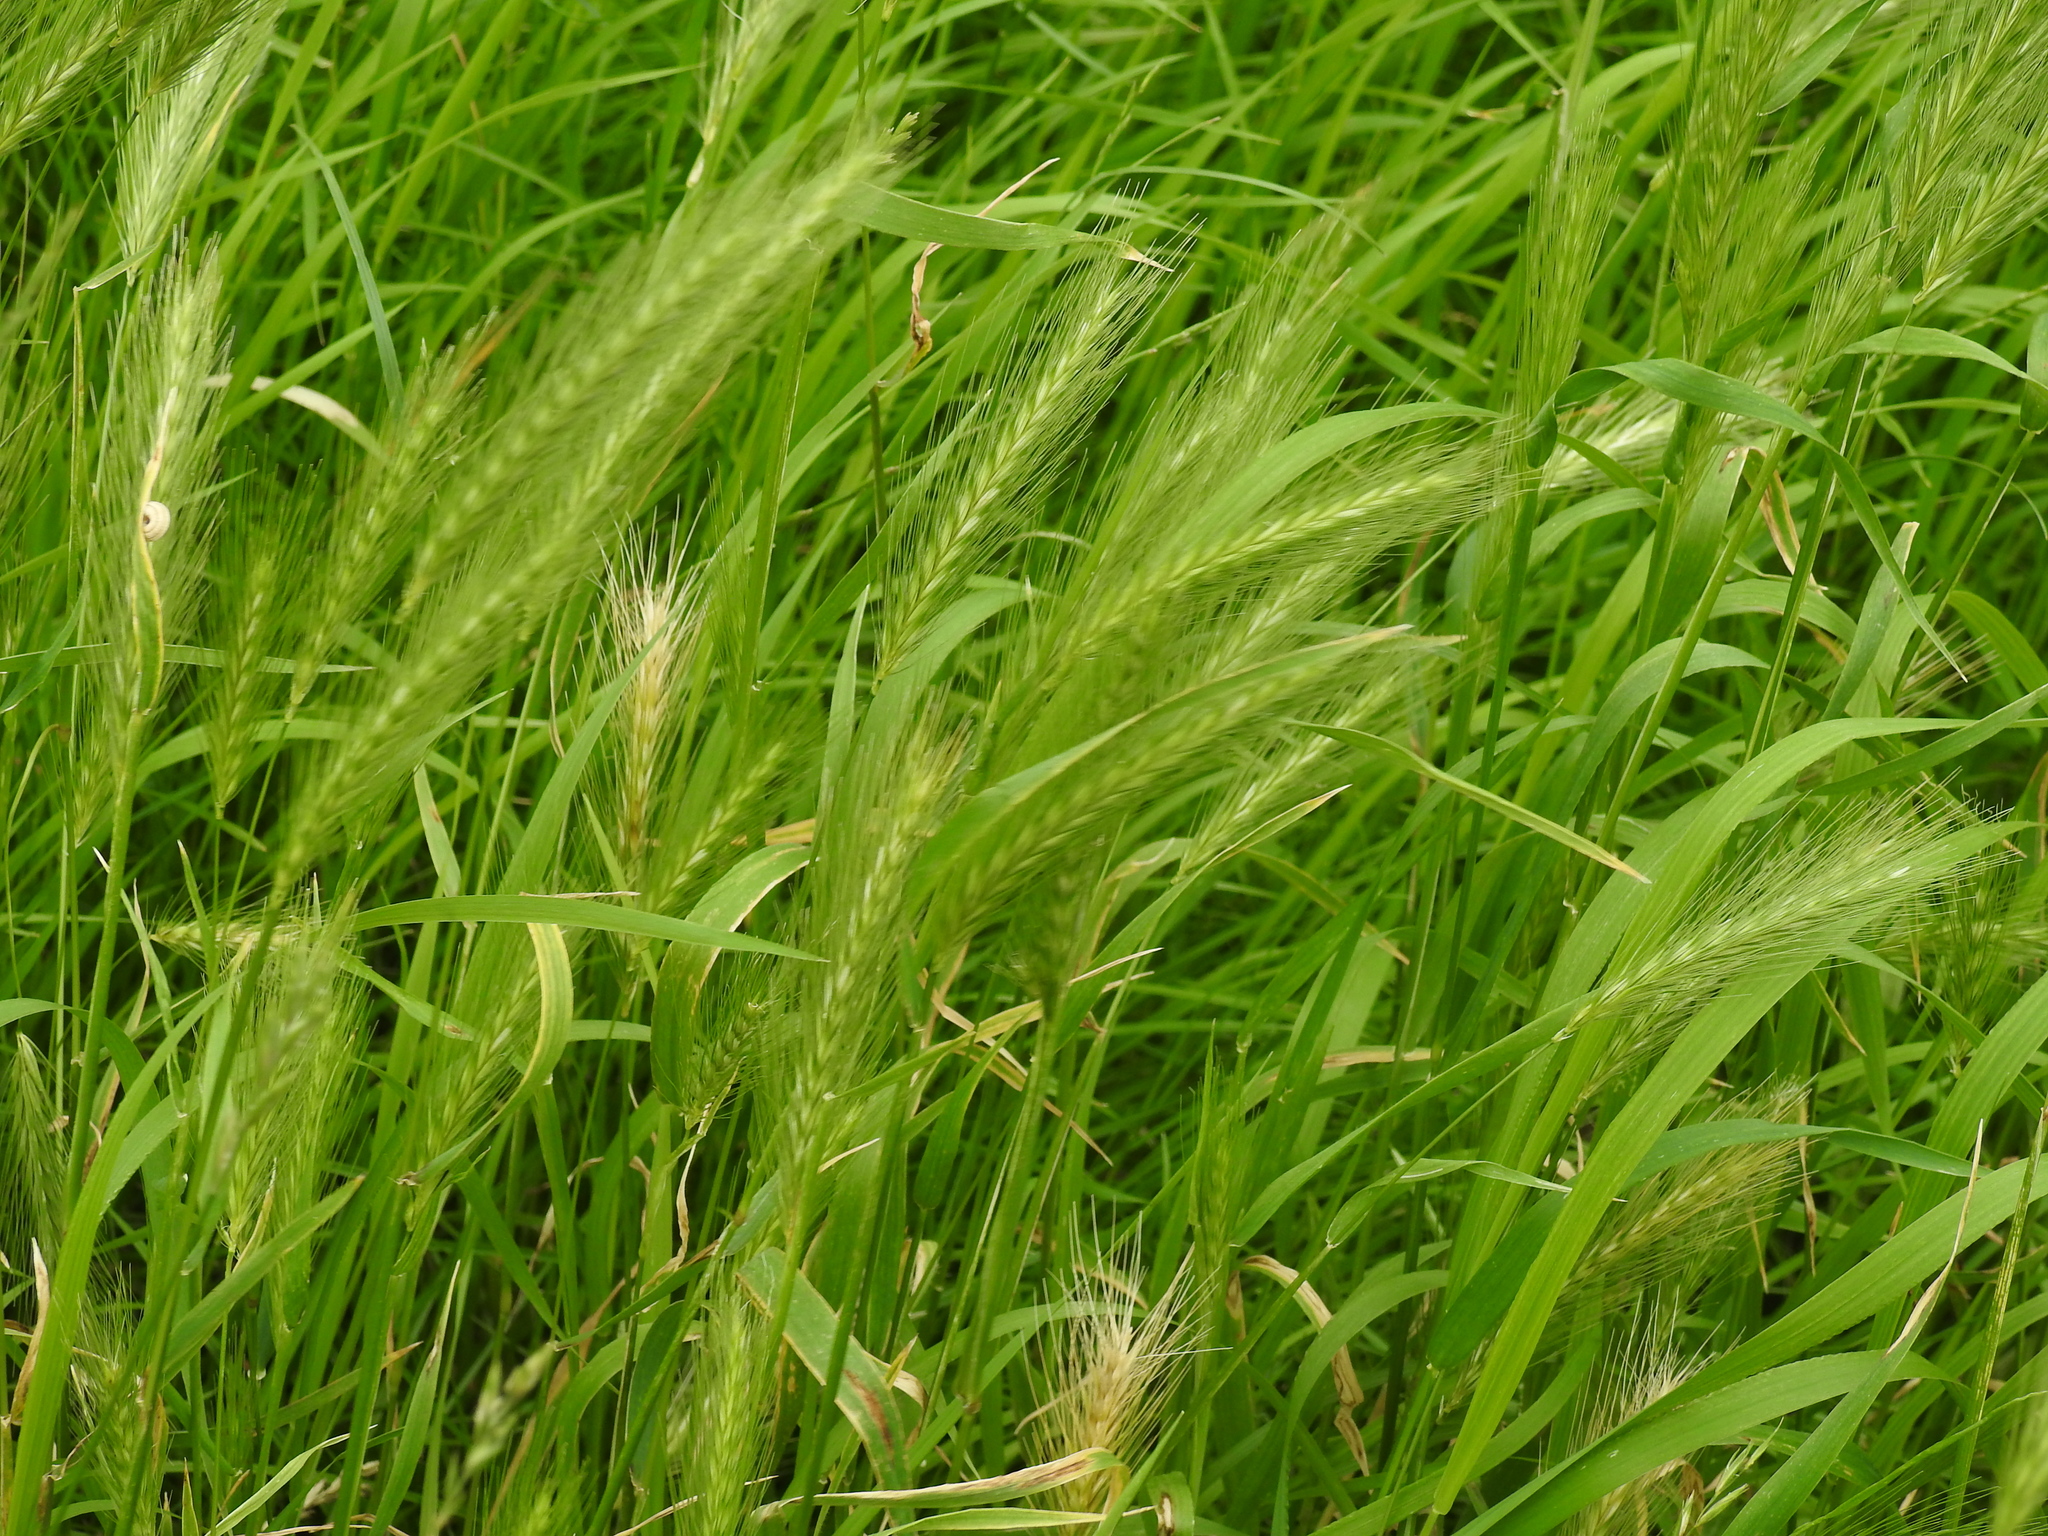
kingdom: Plantae
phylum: Tracheophyta
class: Liliopsida
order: Poales
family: Poaceae
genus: Hordeum
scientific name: Hordeum murinum
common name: Wall barley
